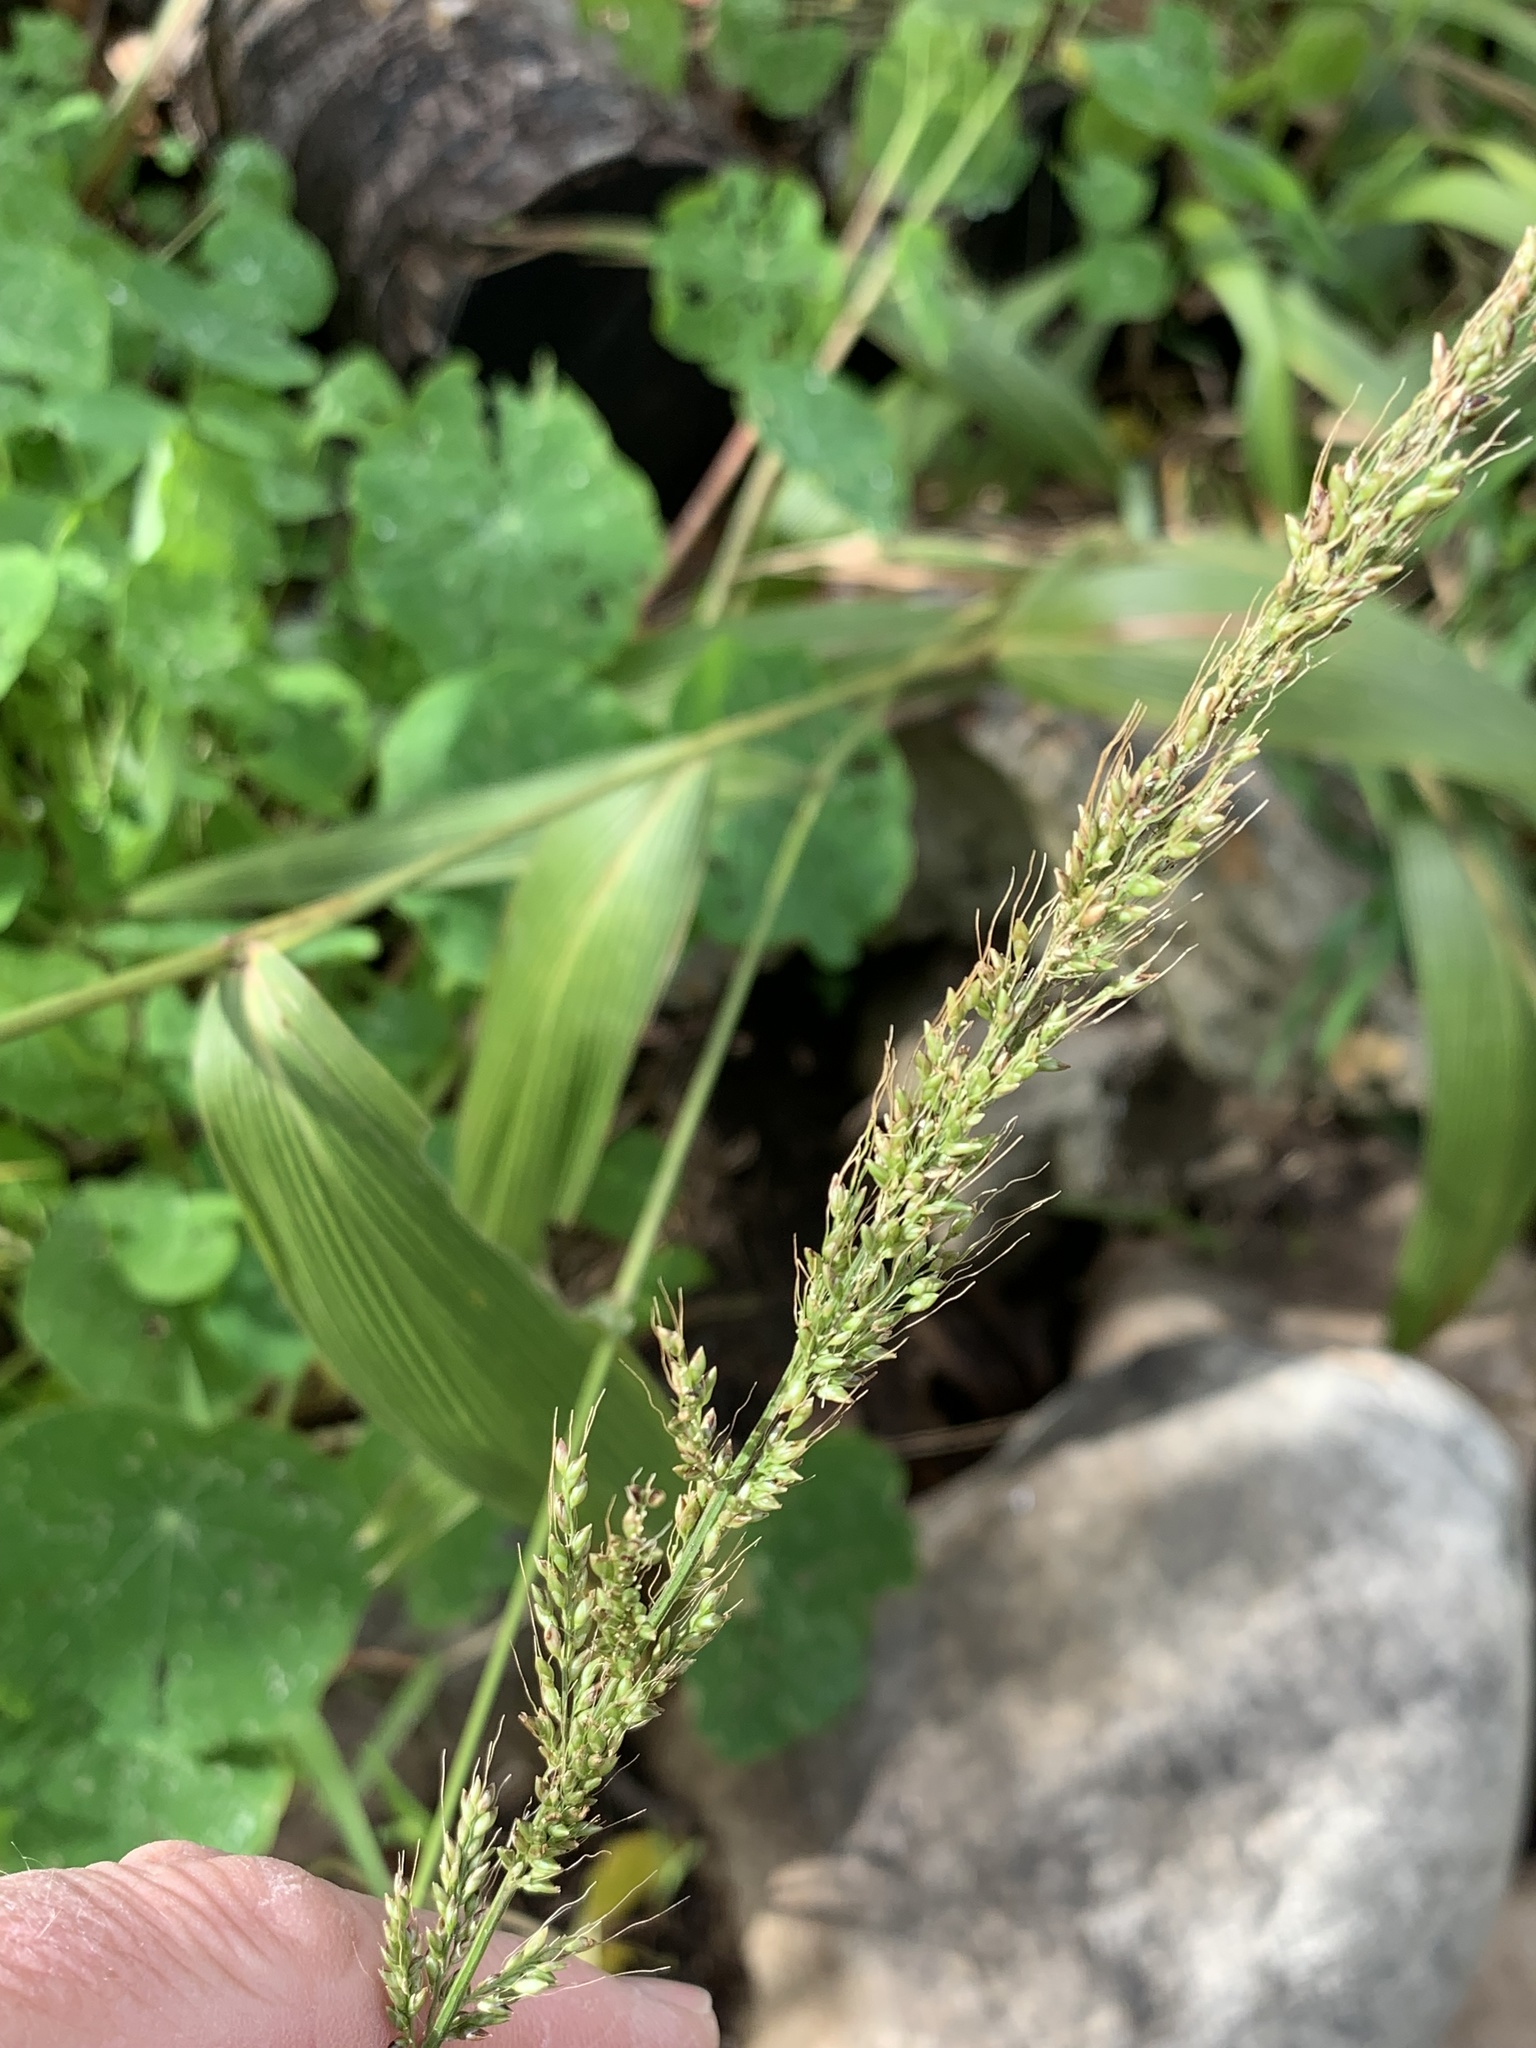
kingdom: Plantae
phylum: Tracheophyta
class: Liliopsida
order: Poales
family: Poaceae
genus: Setaria
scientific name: Setaria megaphylla
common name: Bigleaf bristlegrass
